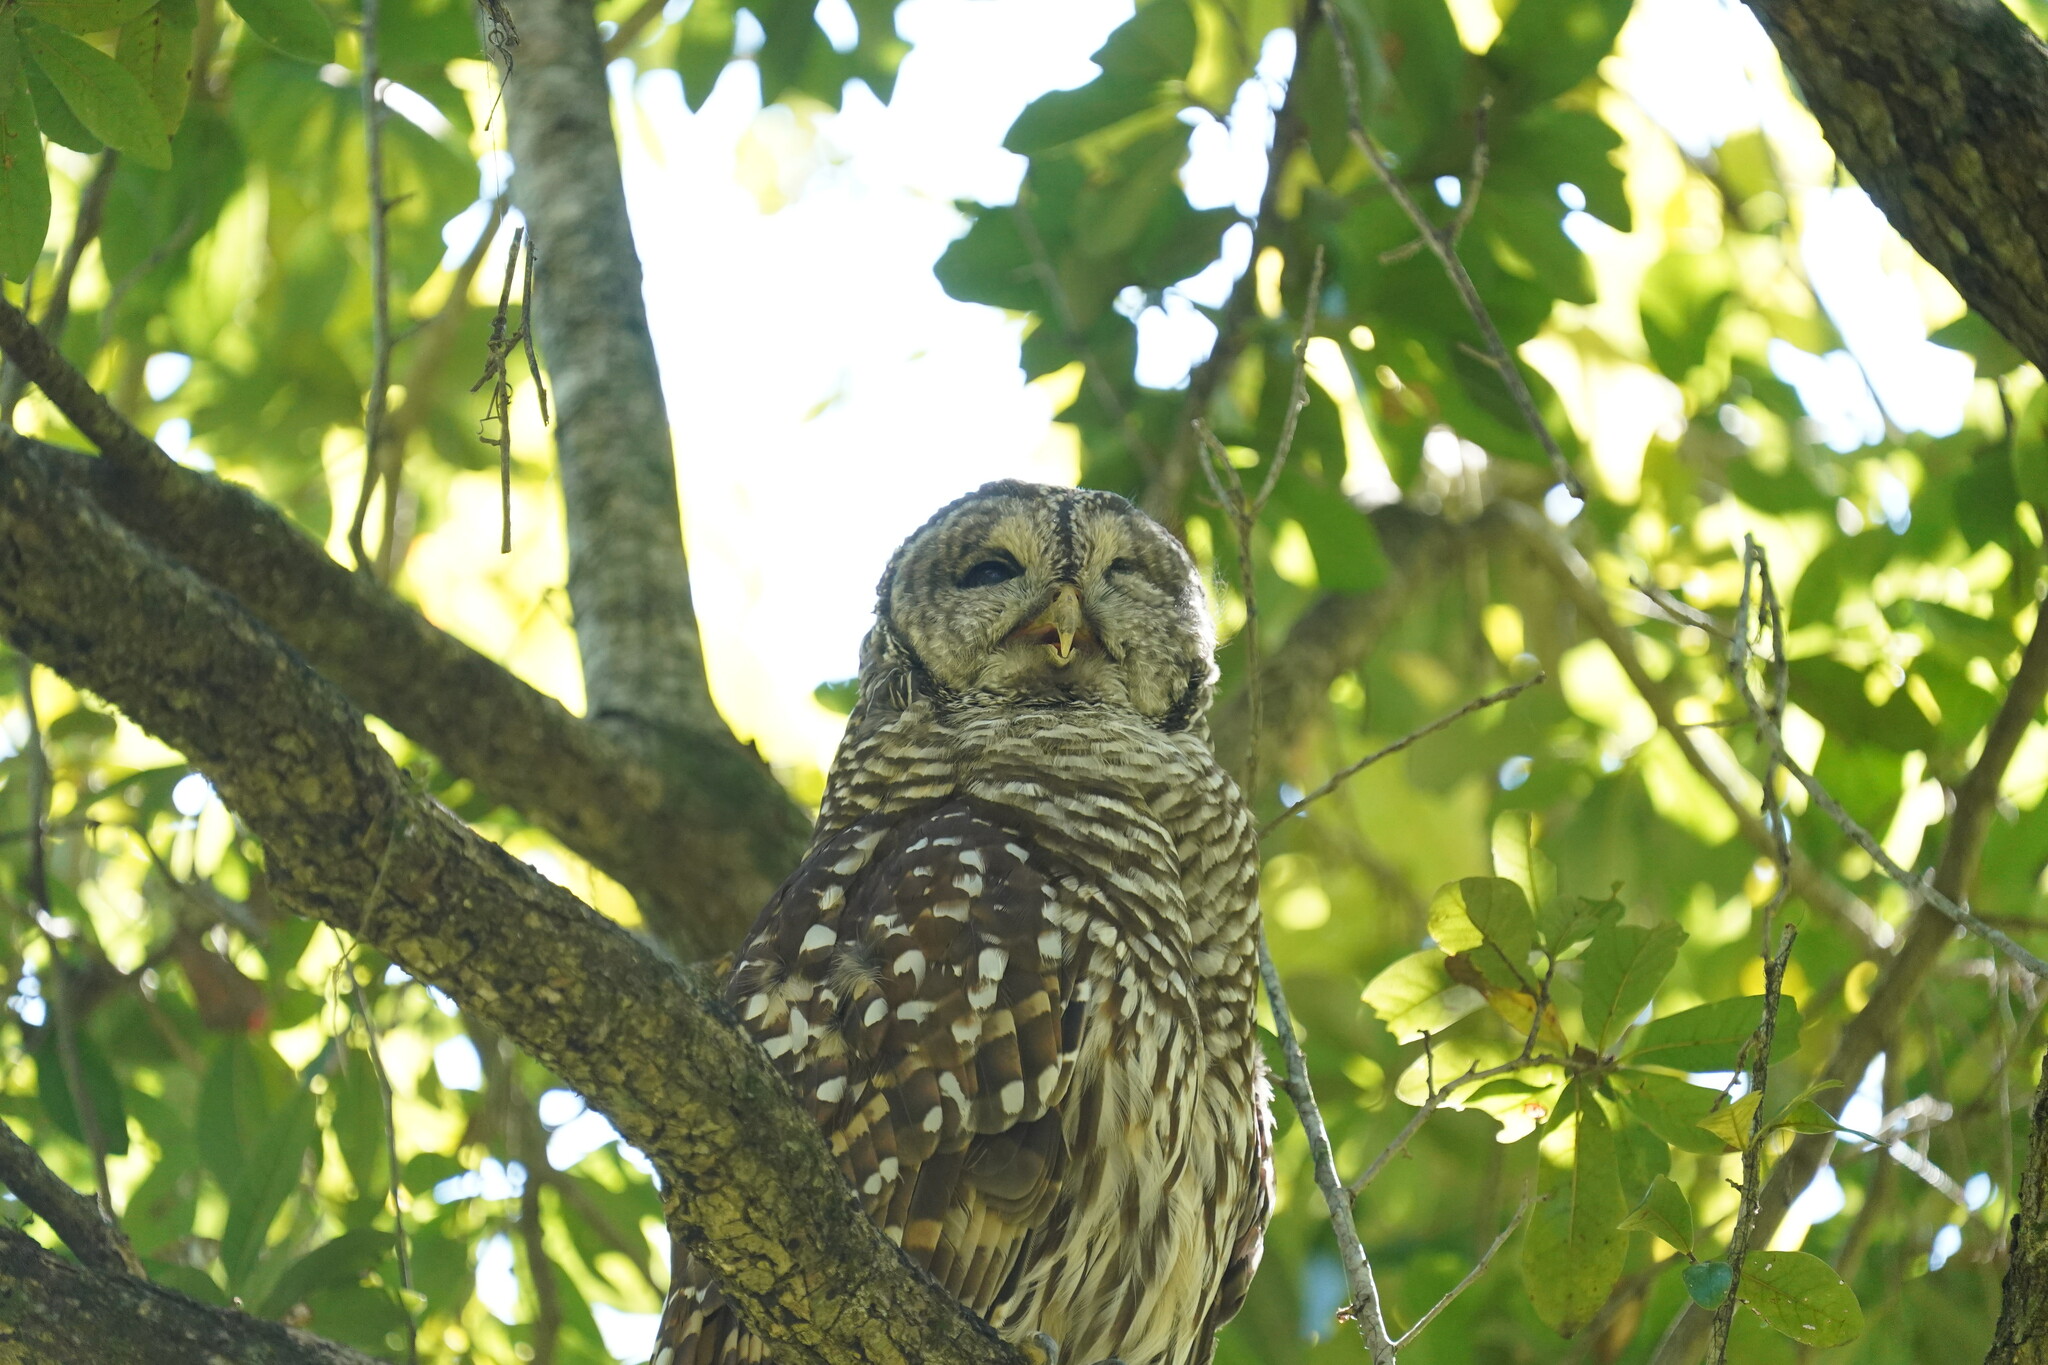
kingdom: Animalia
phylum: Chordata
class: Aves
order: Strigiformes
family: Strigidae
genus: Strix
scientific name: Strix varia
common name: Barred owl
